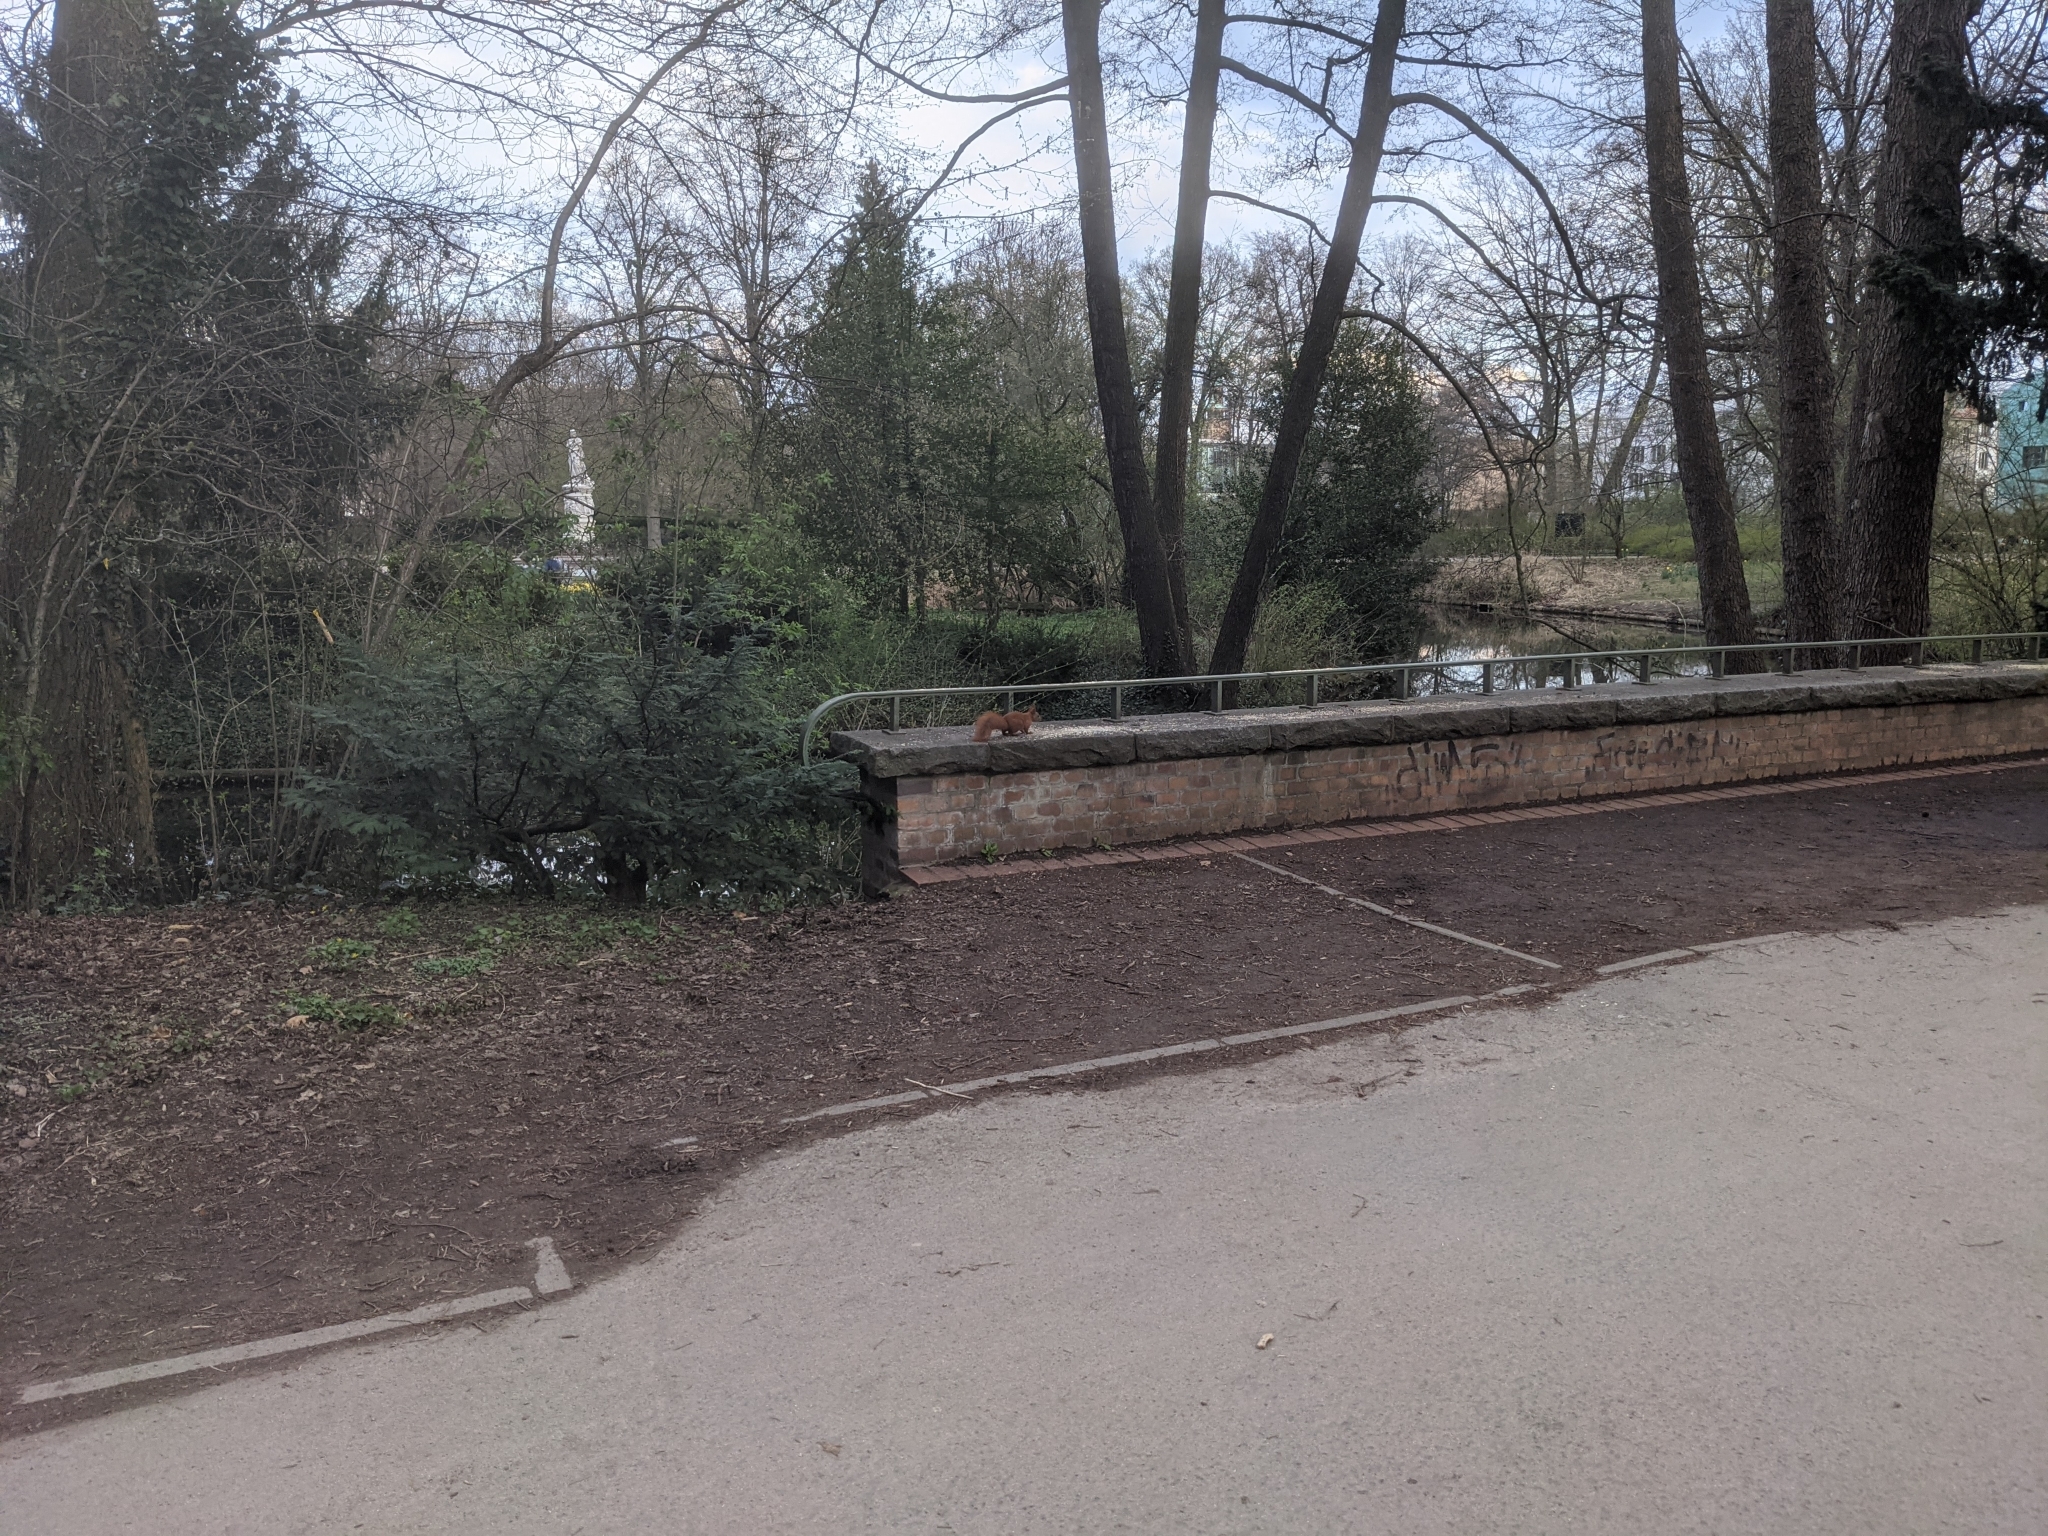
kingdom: Animalia
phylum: Chordata
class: Mammalia
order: Rodentia
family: Sciuridae
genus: Sciurus
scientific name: Sciurus vulgaris
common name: Eurasian red squirrel
